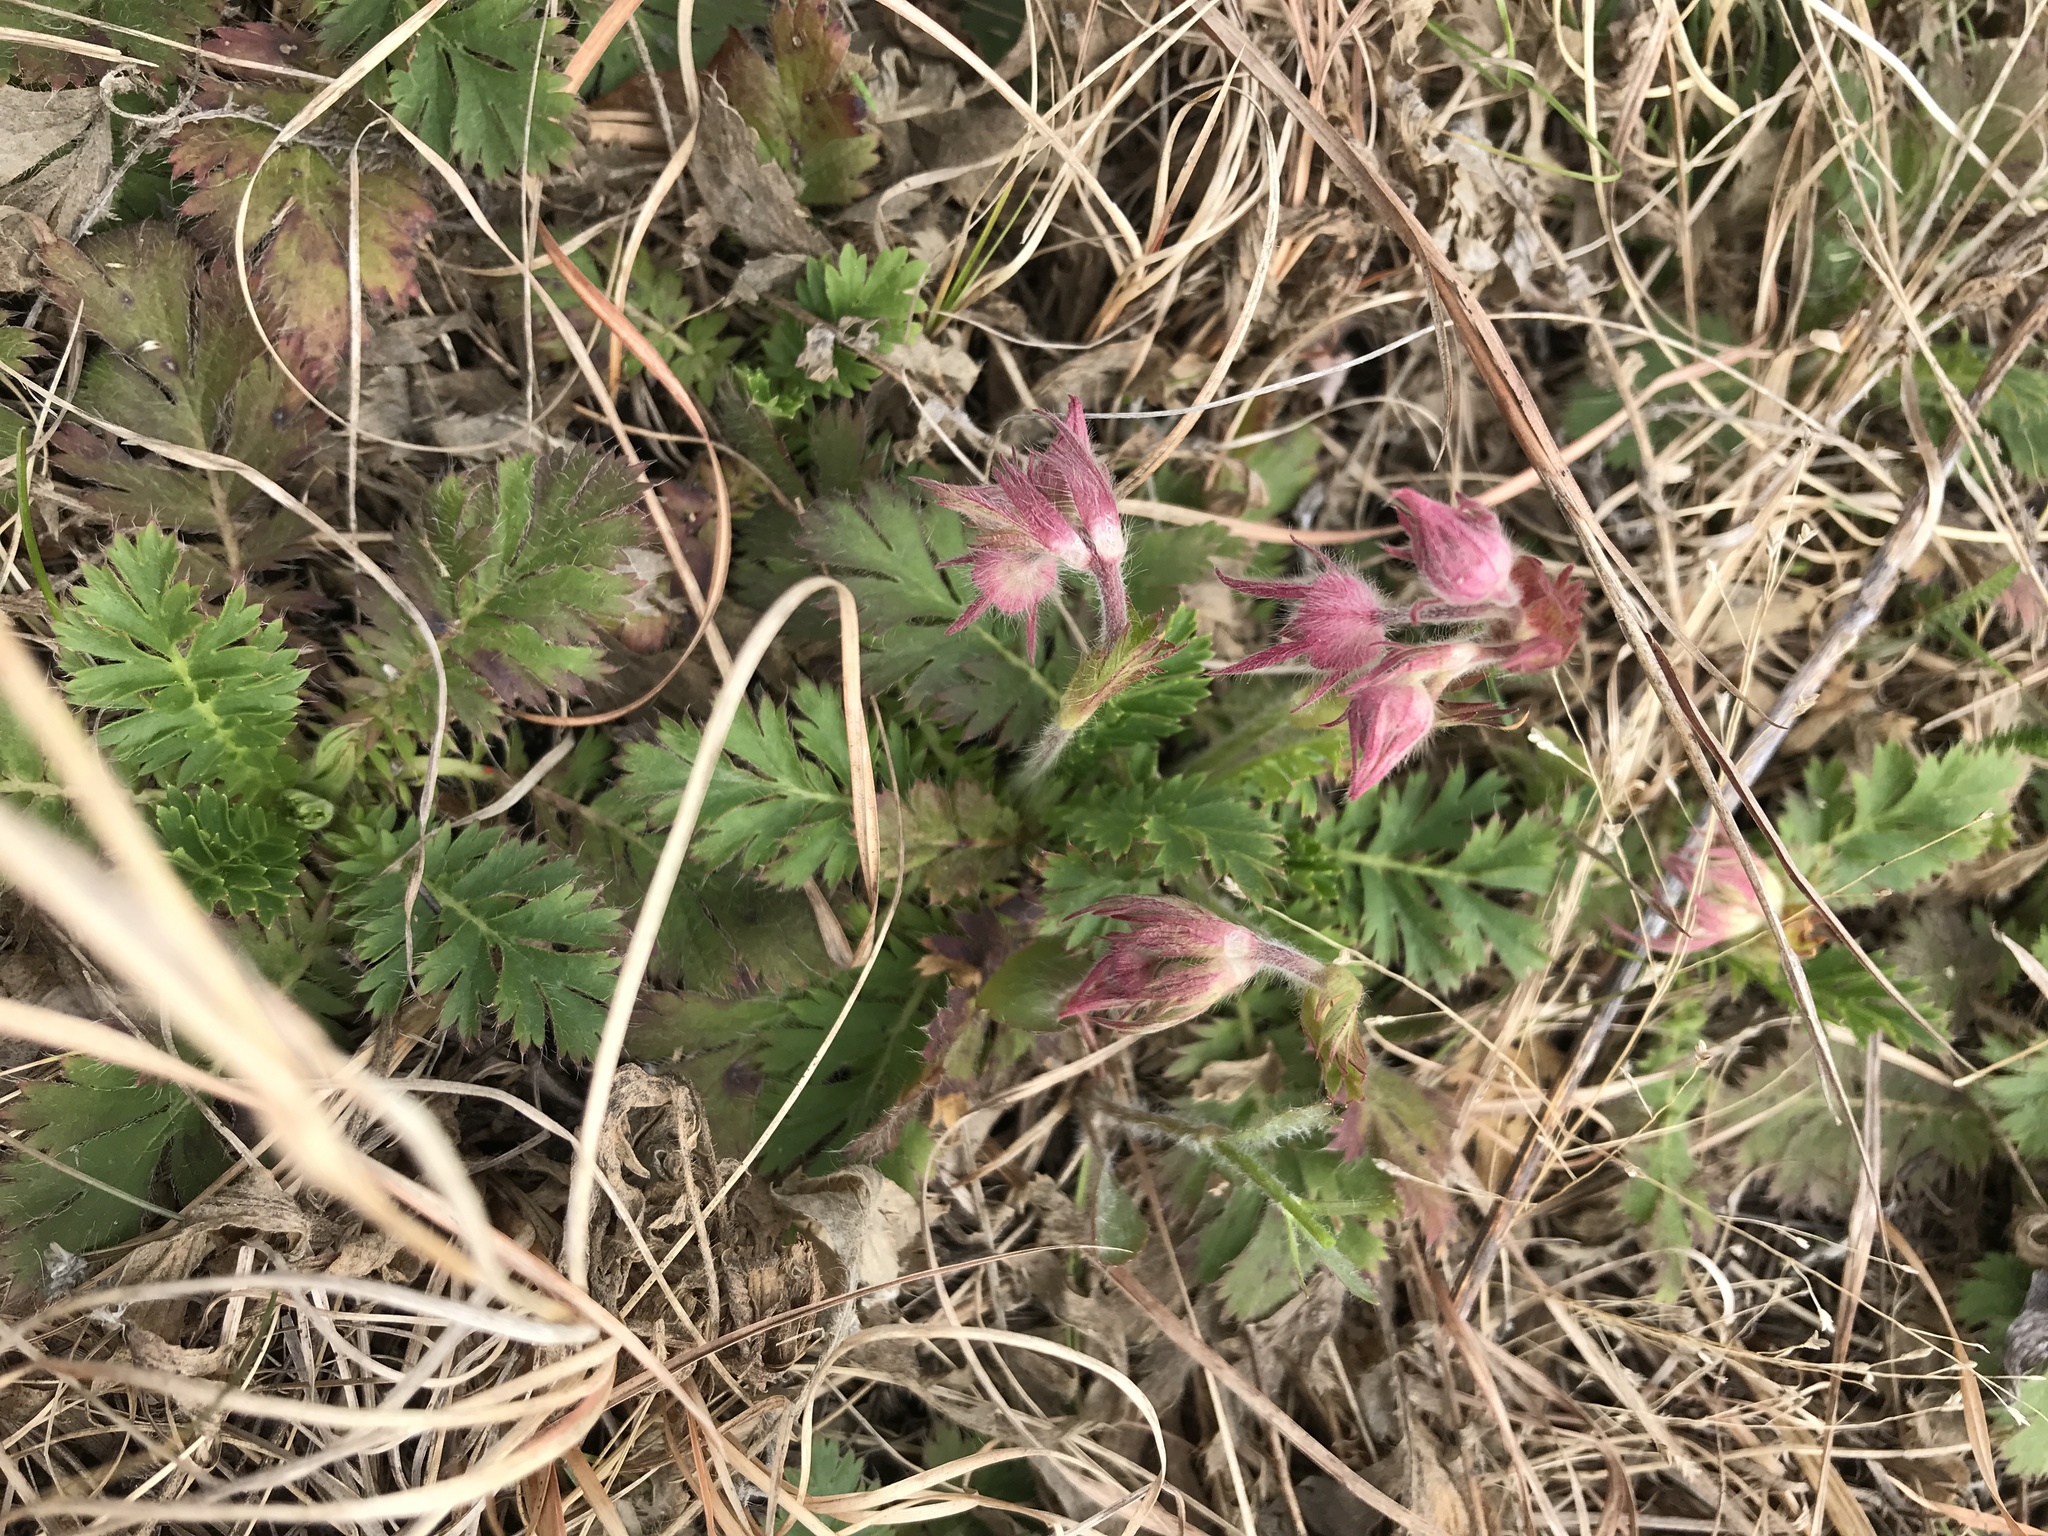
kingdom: Plantae
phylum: Tracheophyta
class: Magnoliopsida
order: Rosales
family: Rosaceae
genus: Geum
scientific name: Geum triflorum
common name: Old man's whiskers
